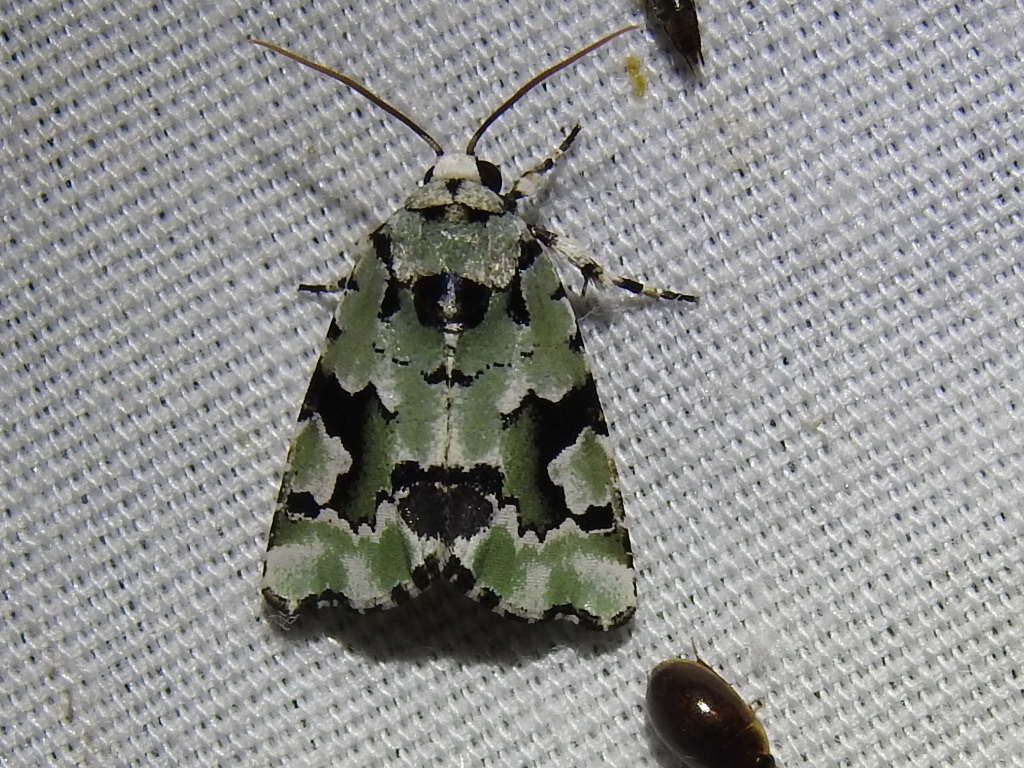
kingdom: Animalia
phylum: Arthropoda
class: Insecta
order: Lepidoptera
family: Noctuidae
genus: Emarginea
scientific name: Emarginea percara
